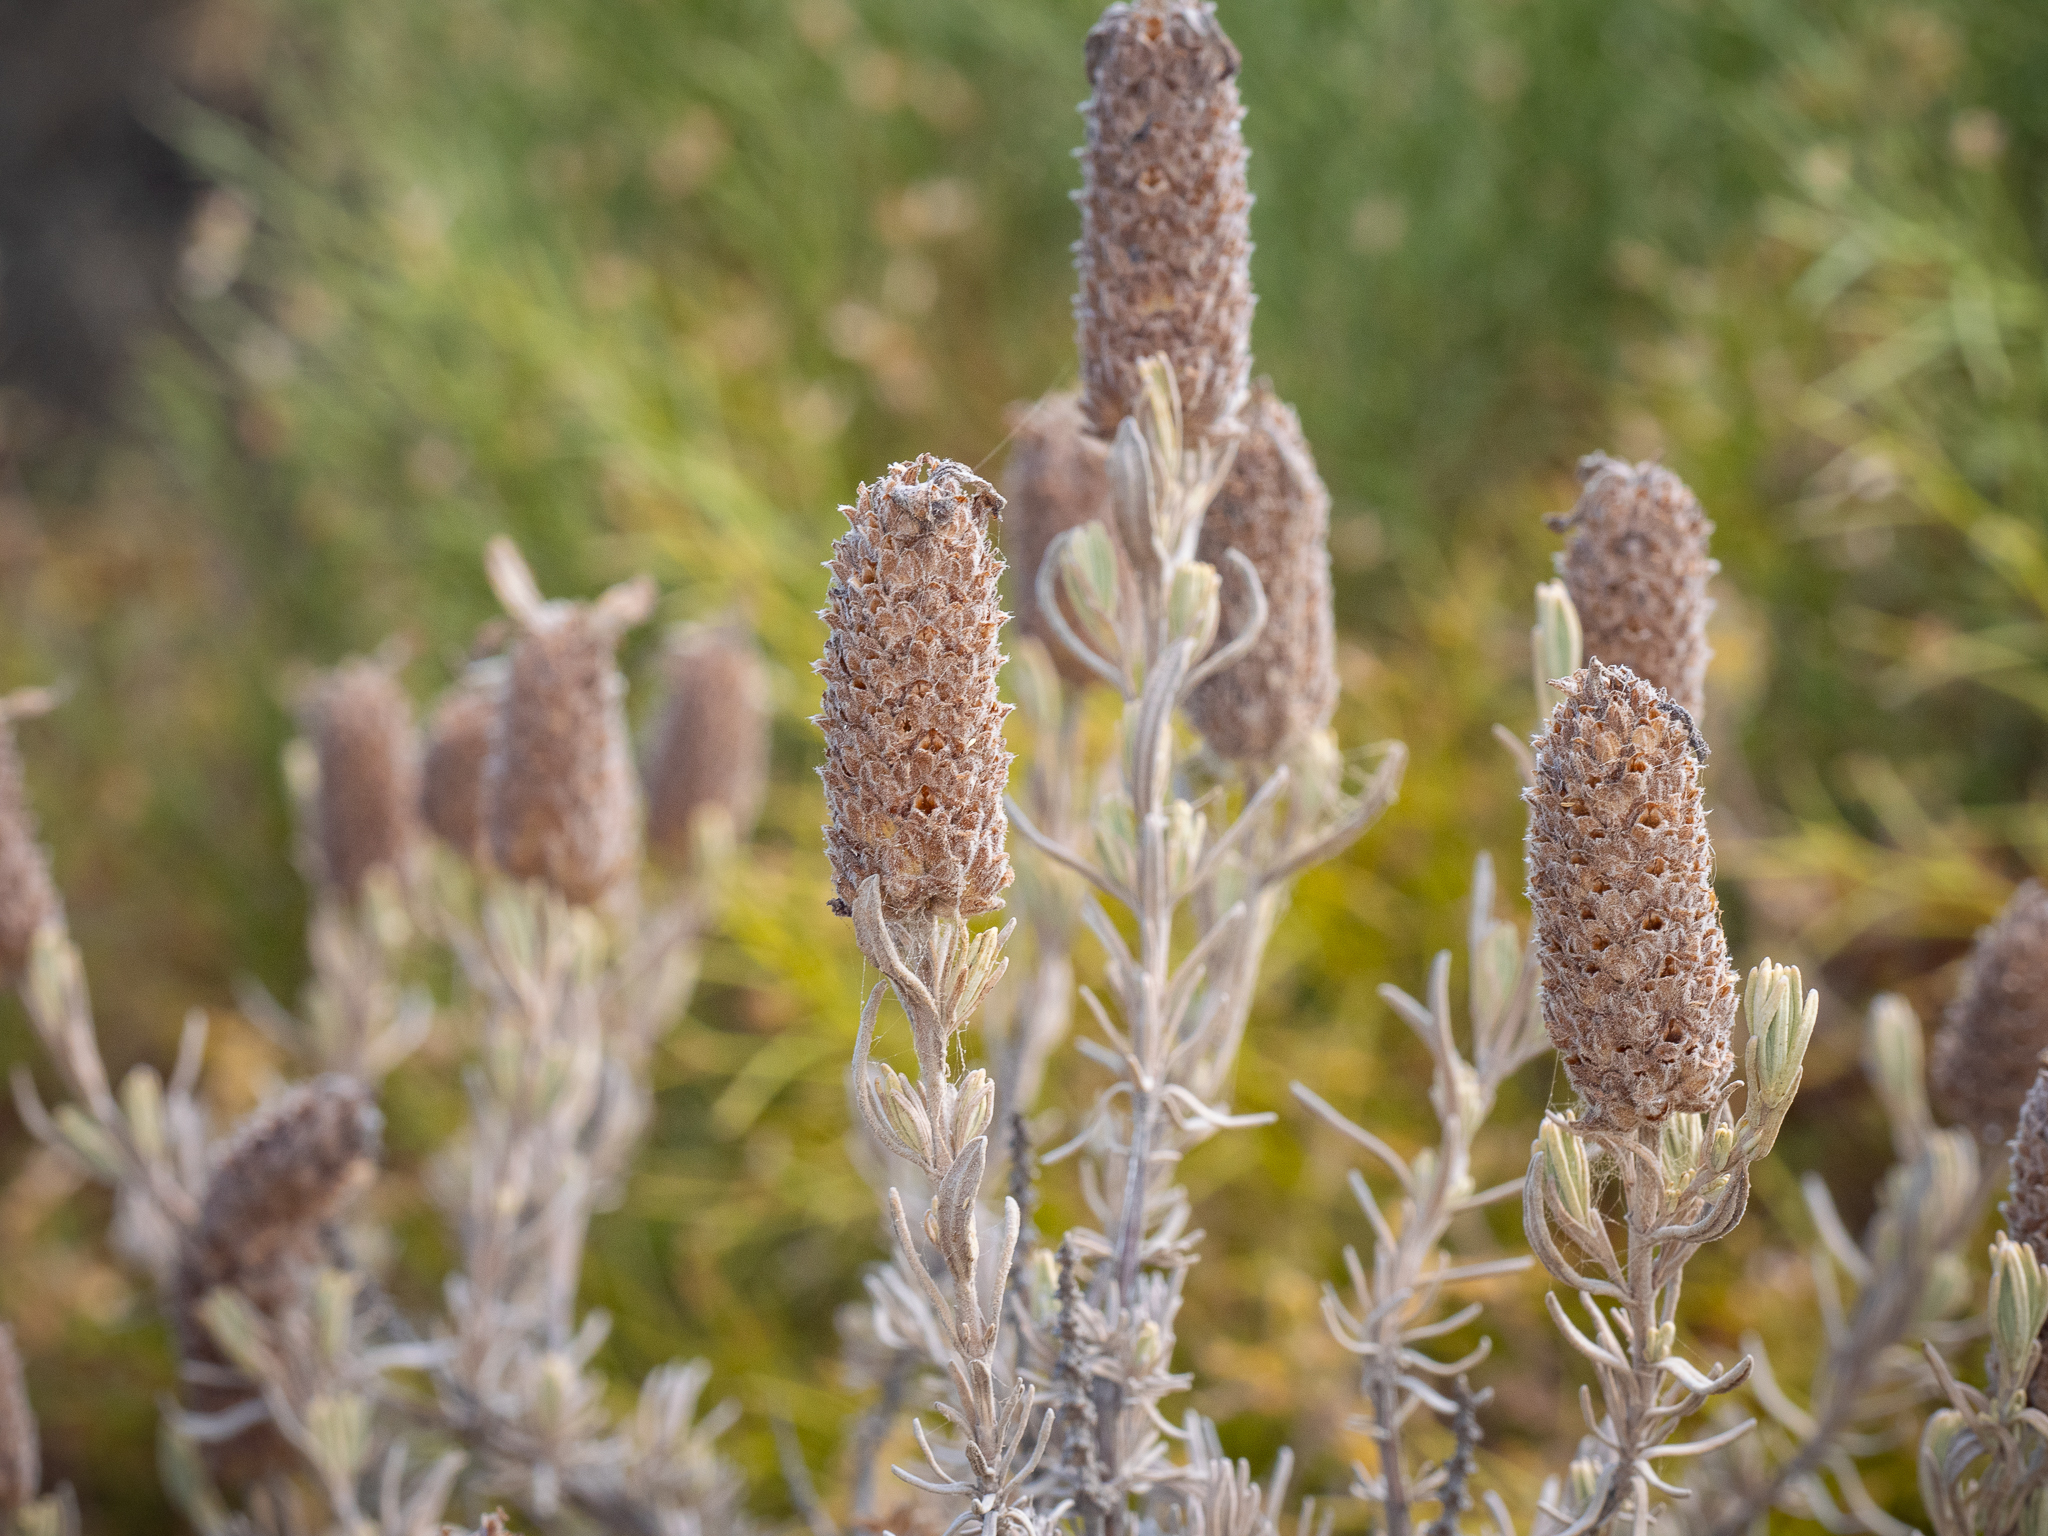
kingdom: Plantae
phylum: Tracheophyta
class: Magnoliopsida
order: Lamiales
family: Lamiaceae
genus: Lavandula
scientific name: Lavandula stoechas
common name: French lavender
